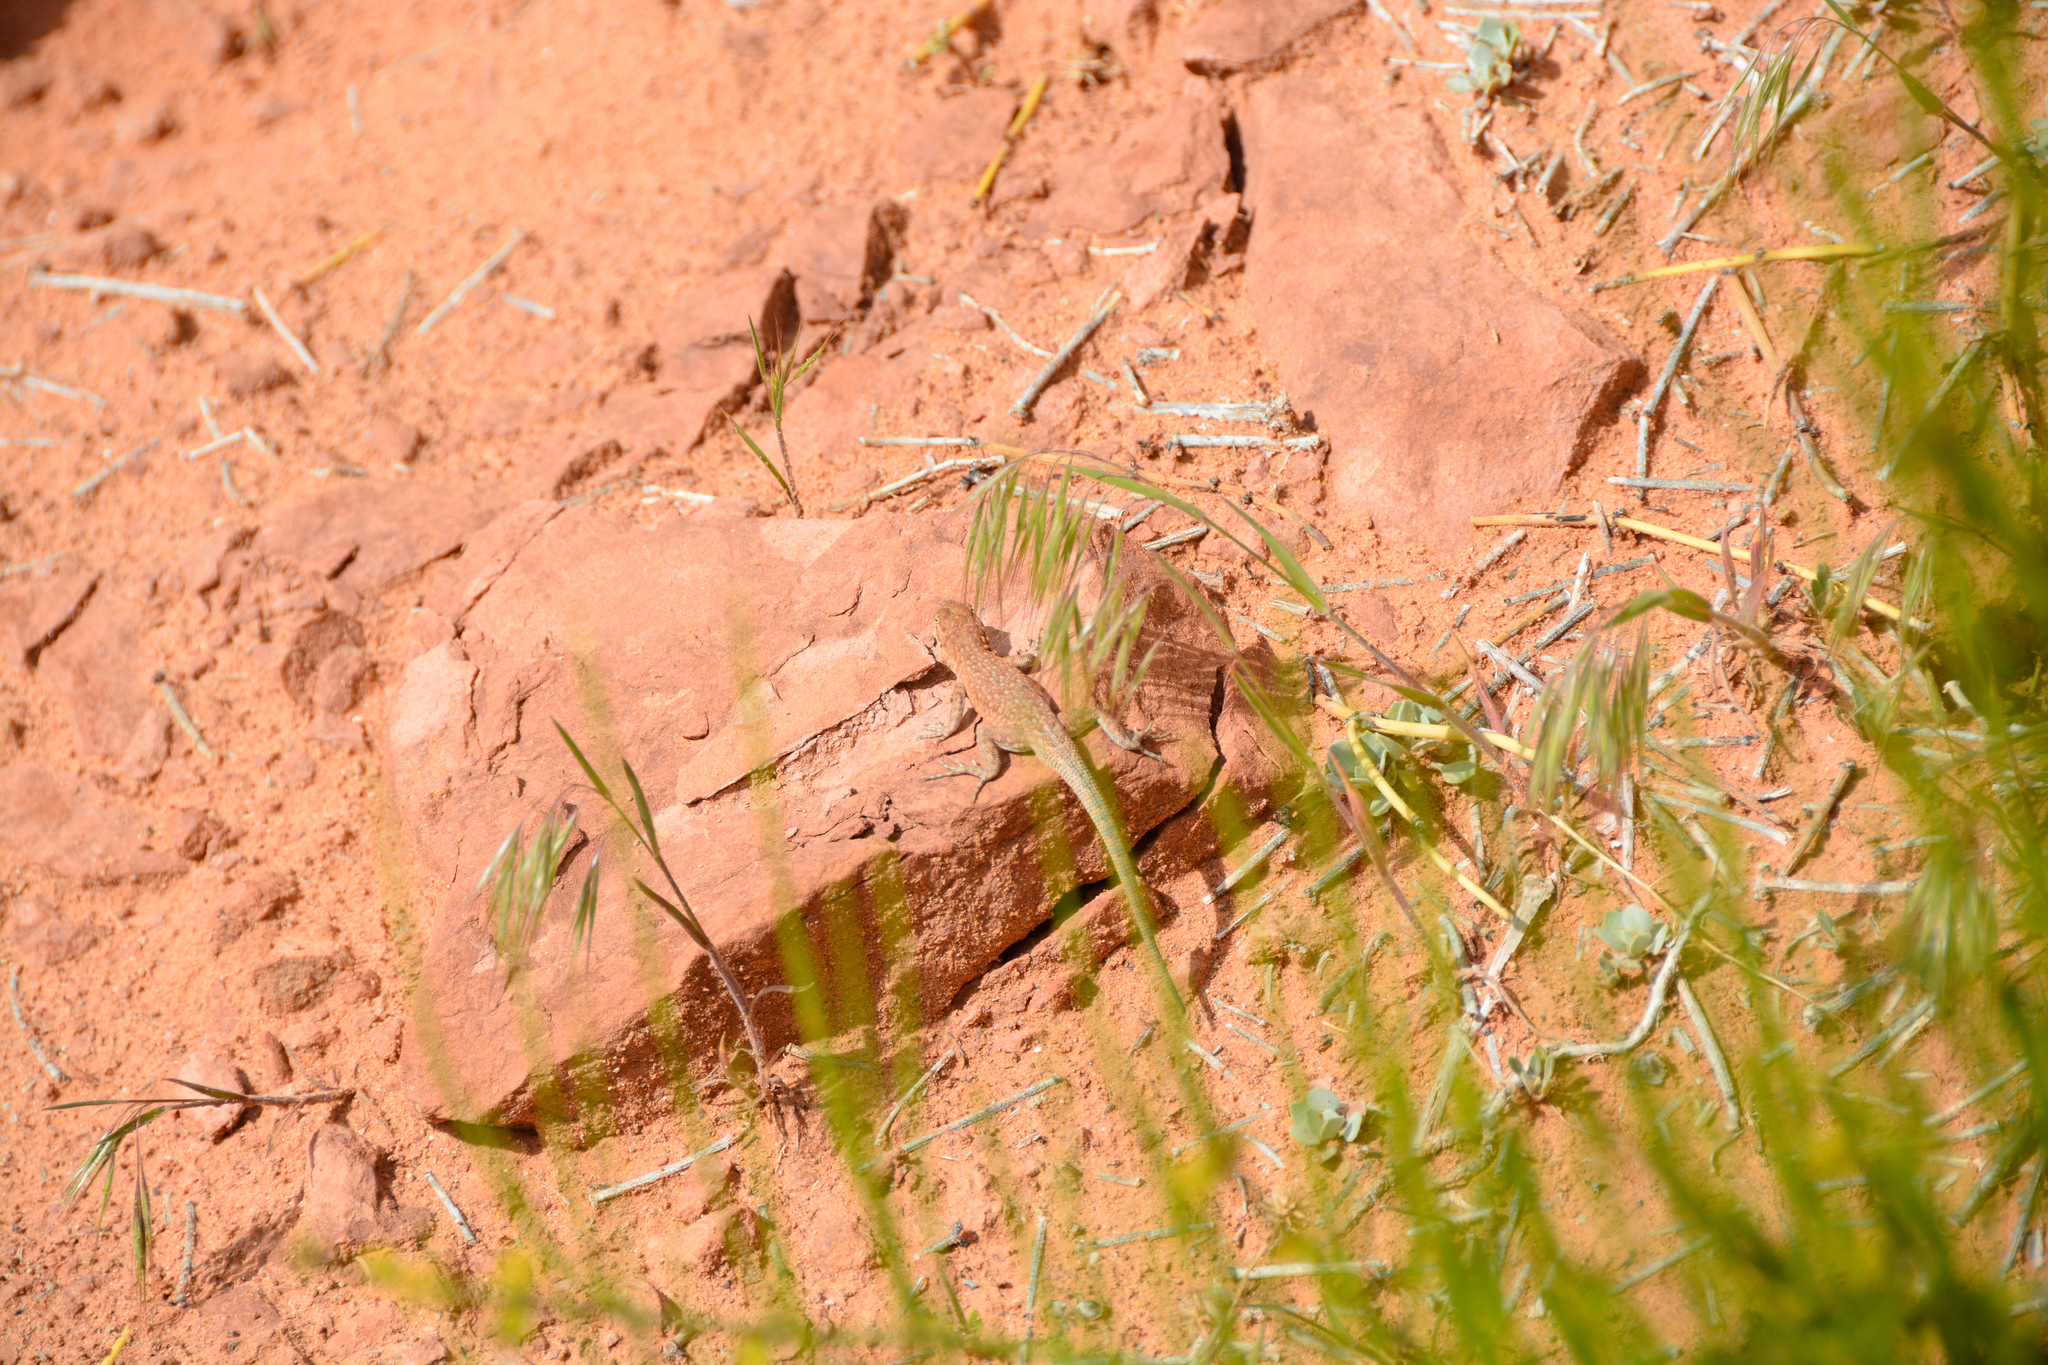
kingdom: Animalia
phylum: Chordata
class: Squamata
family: Phrynosomatidae
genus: Uta
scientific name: Uta stansburiana
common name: Side-blotched lizard
